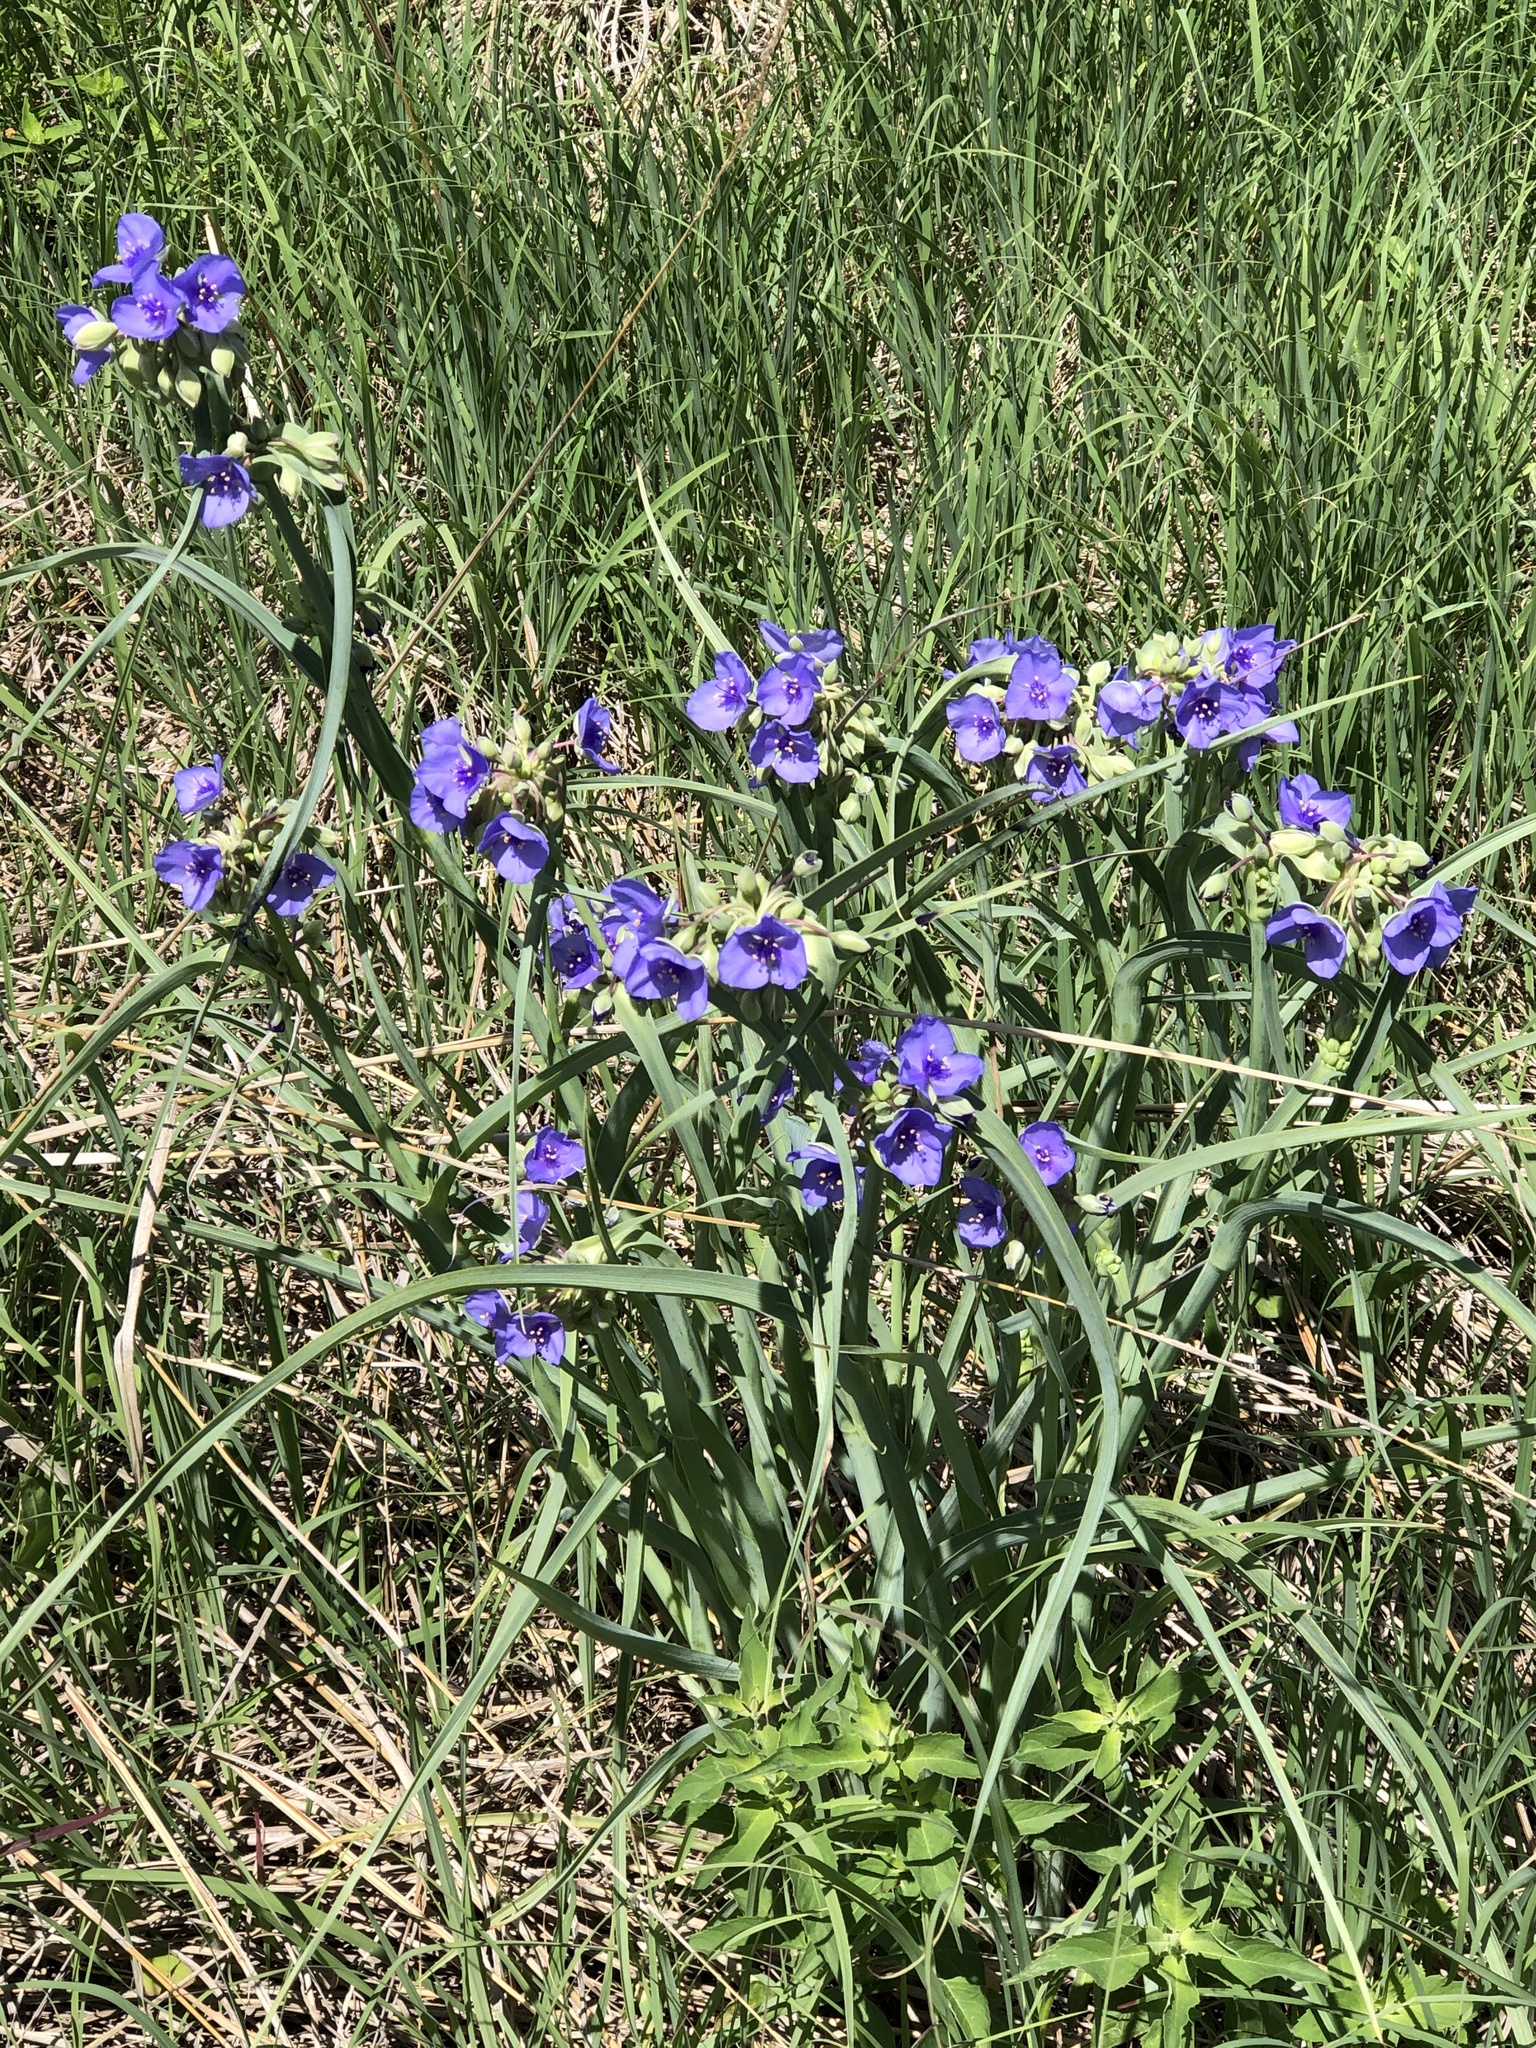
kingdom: Plantae
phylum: Tracheophyta
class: Liliopsida
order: Commelinales
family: Commelinaceae
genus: Tradescantia
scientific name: Tradescantia ohiensis
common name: Ohio spiderwort
